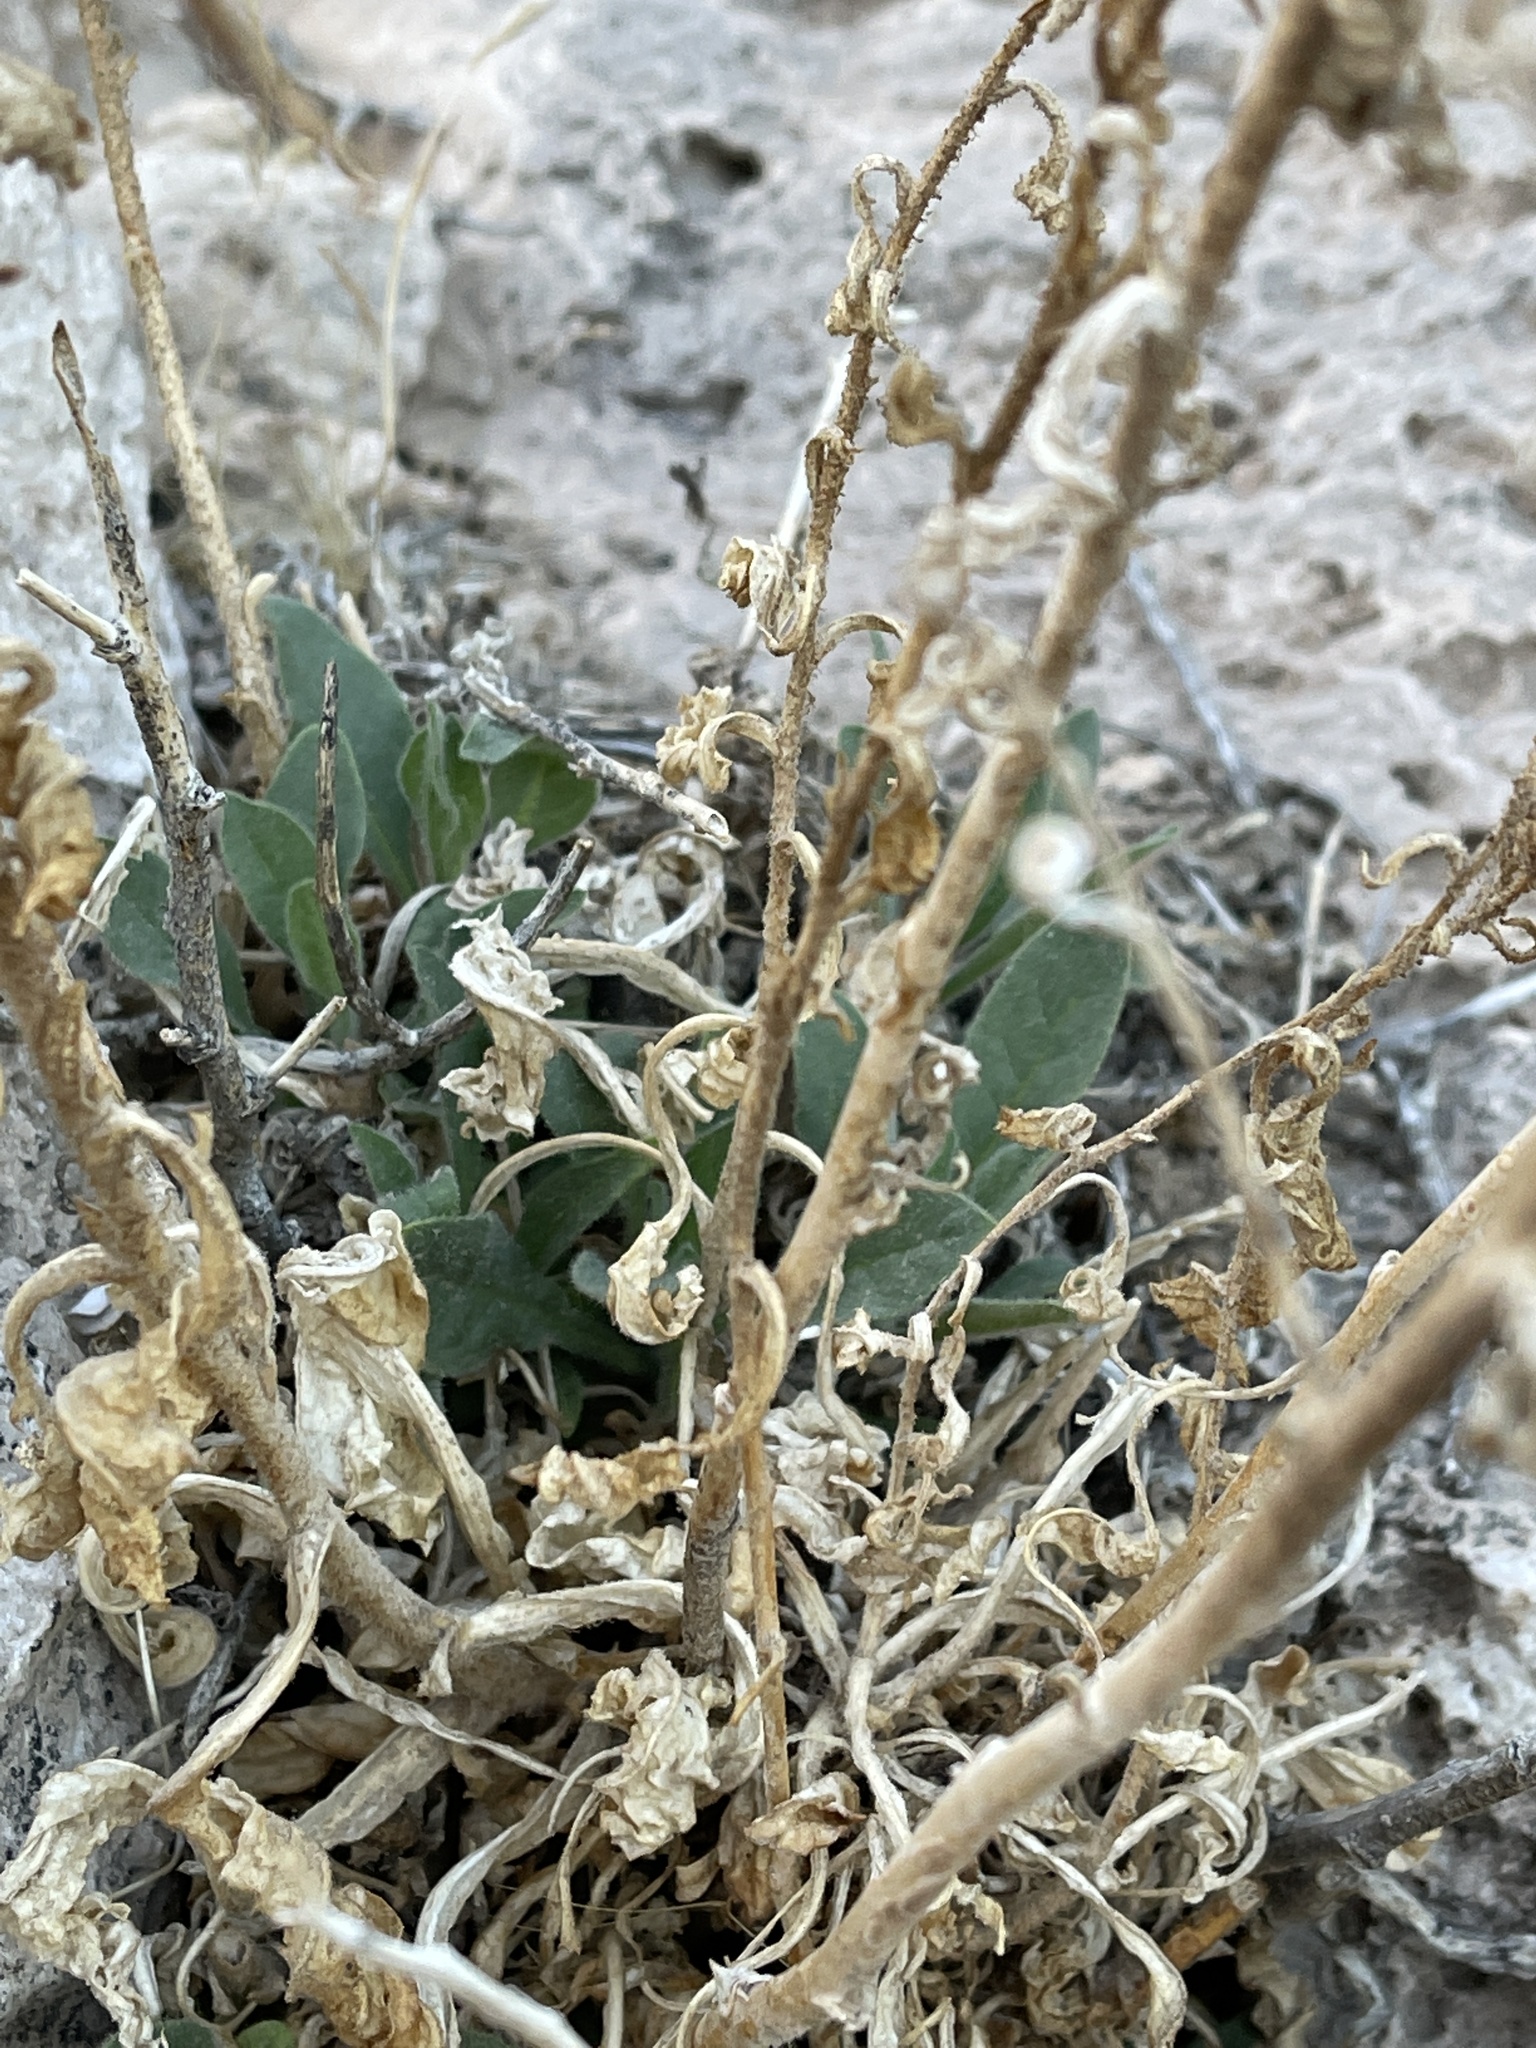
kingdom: Plantae
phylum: Tracheophyta
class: Magnoliopsida
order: Solanales
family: Solanaceae
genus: Nicotiana
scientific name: Nicotiana obtusifolia
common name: Desert tobacco
